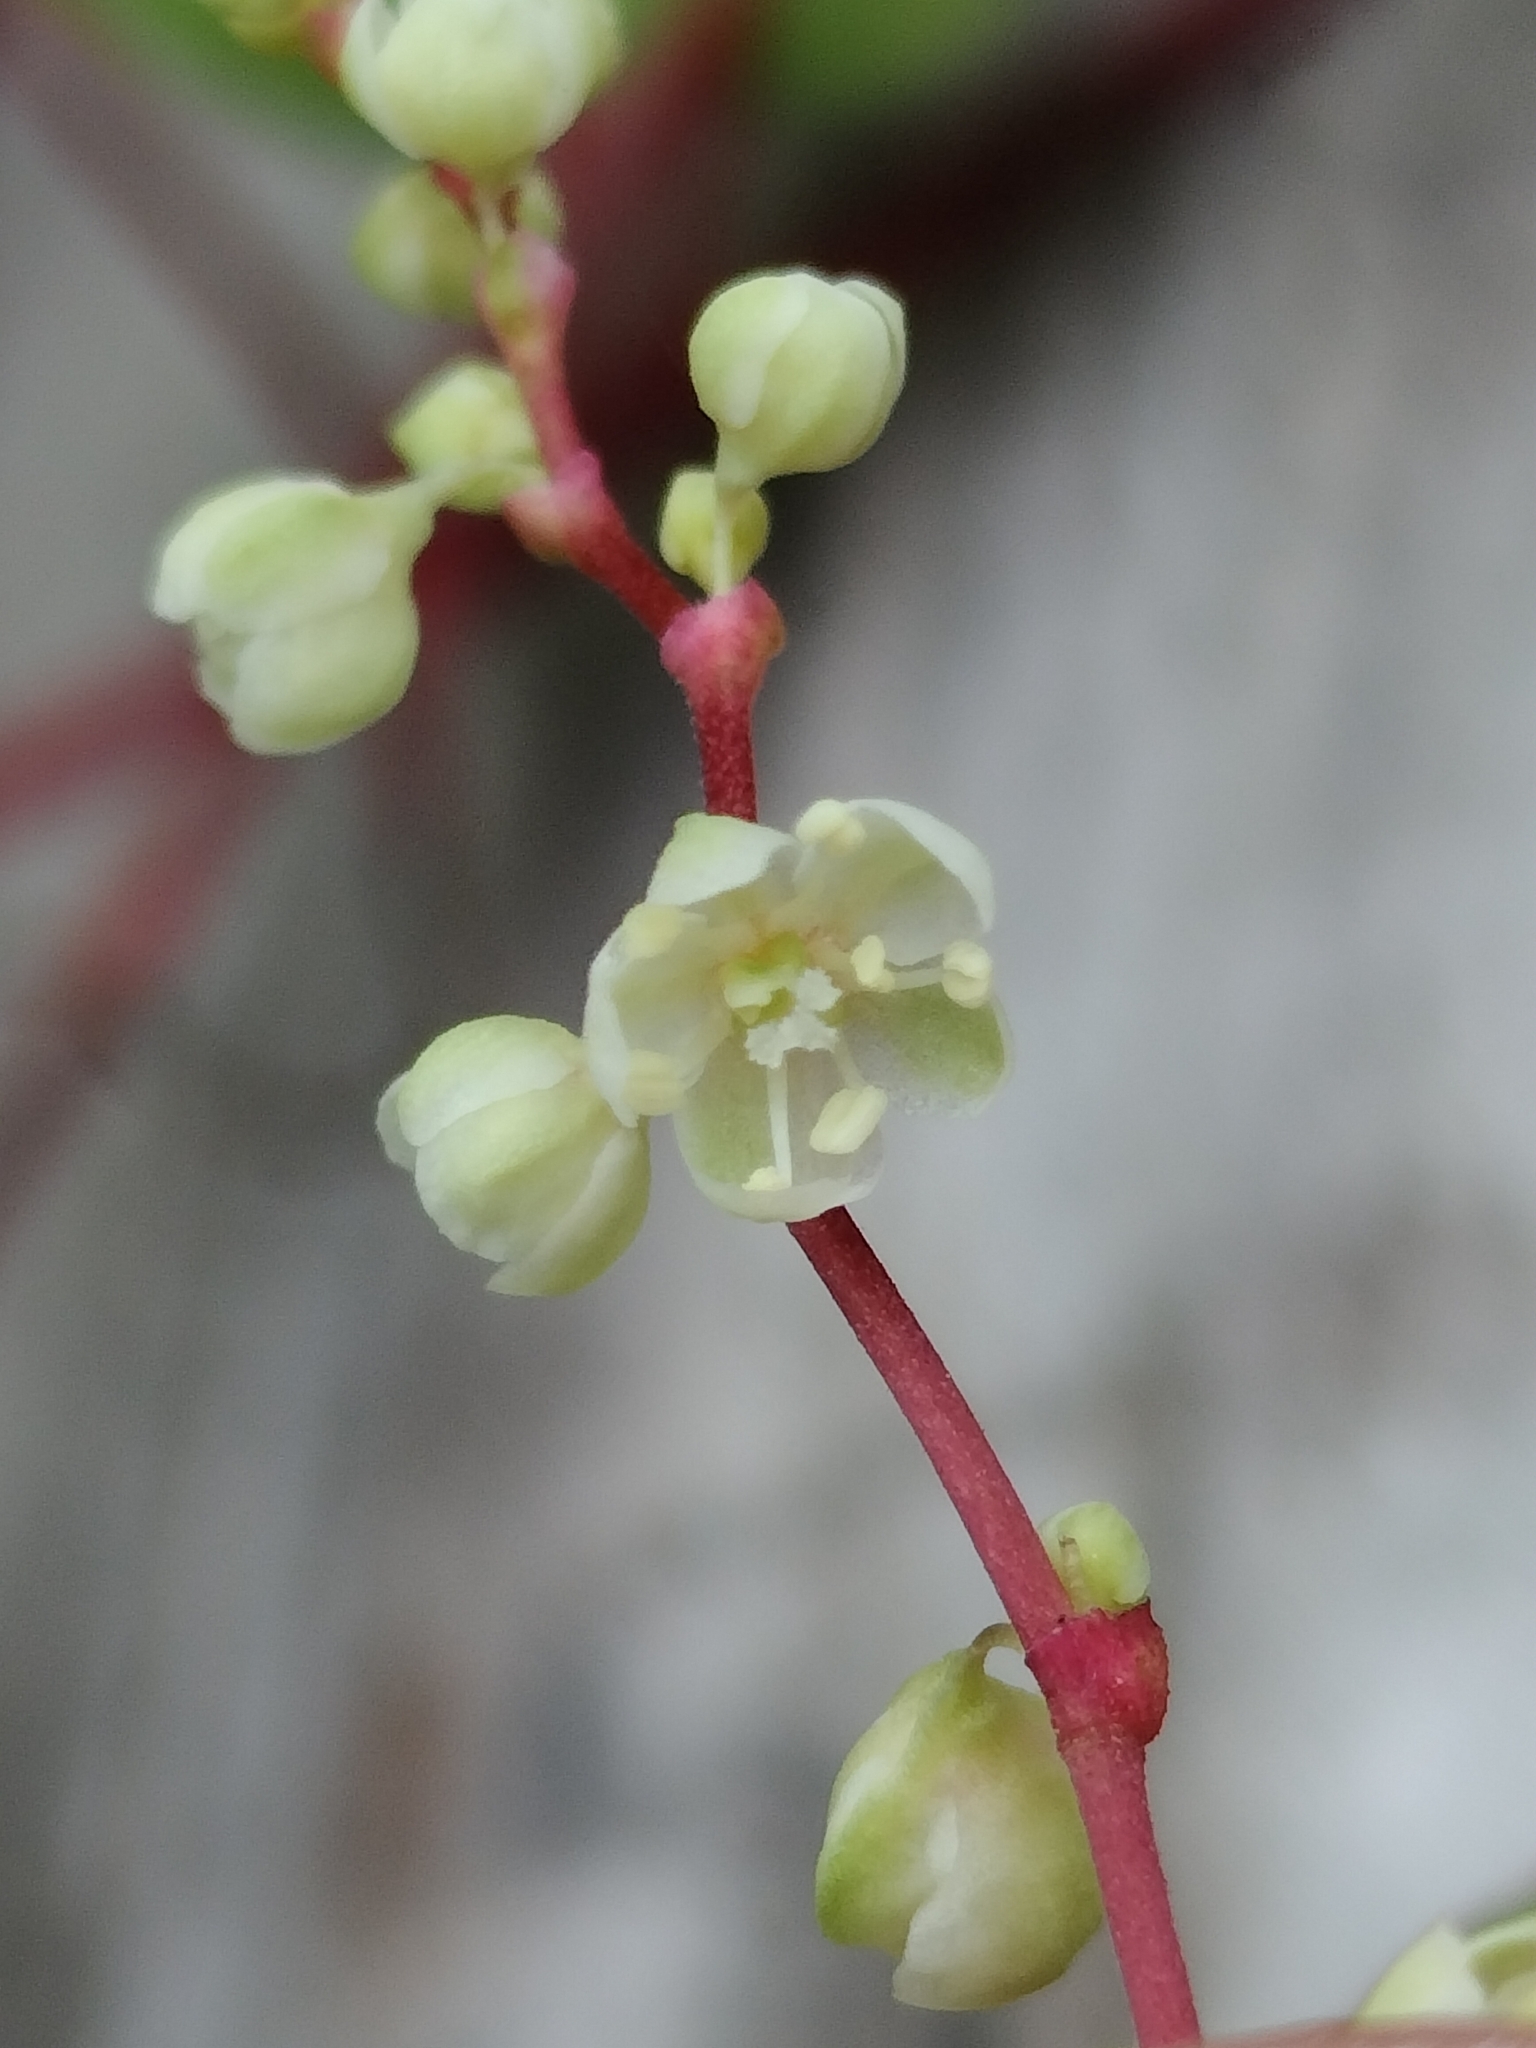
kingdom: Plantae
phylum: Tracheophyta
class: Magnoliopsida
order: Caryophyllales
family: Polygonaceae
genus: Parogonum
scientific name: Parogonum ciliinode
